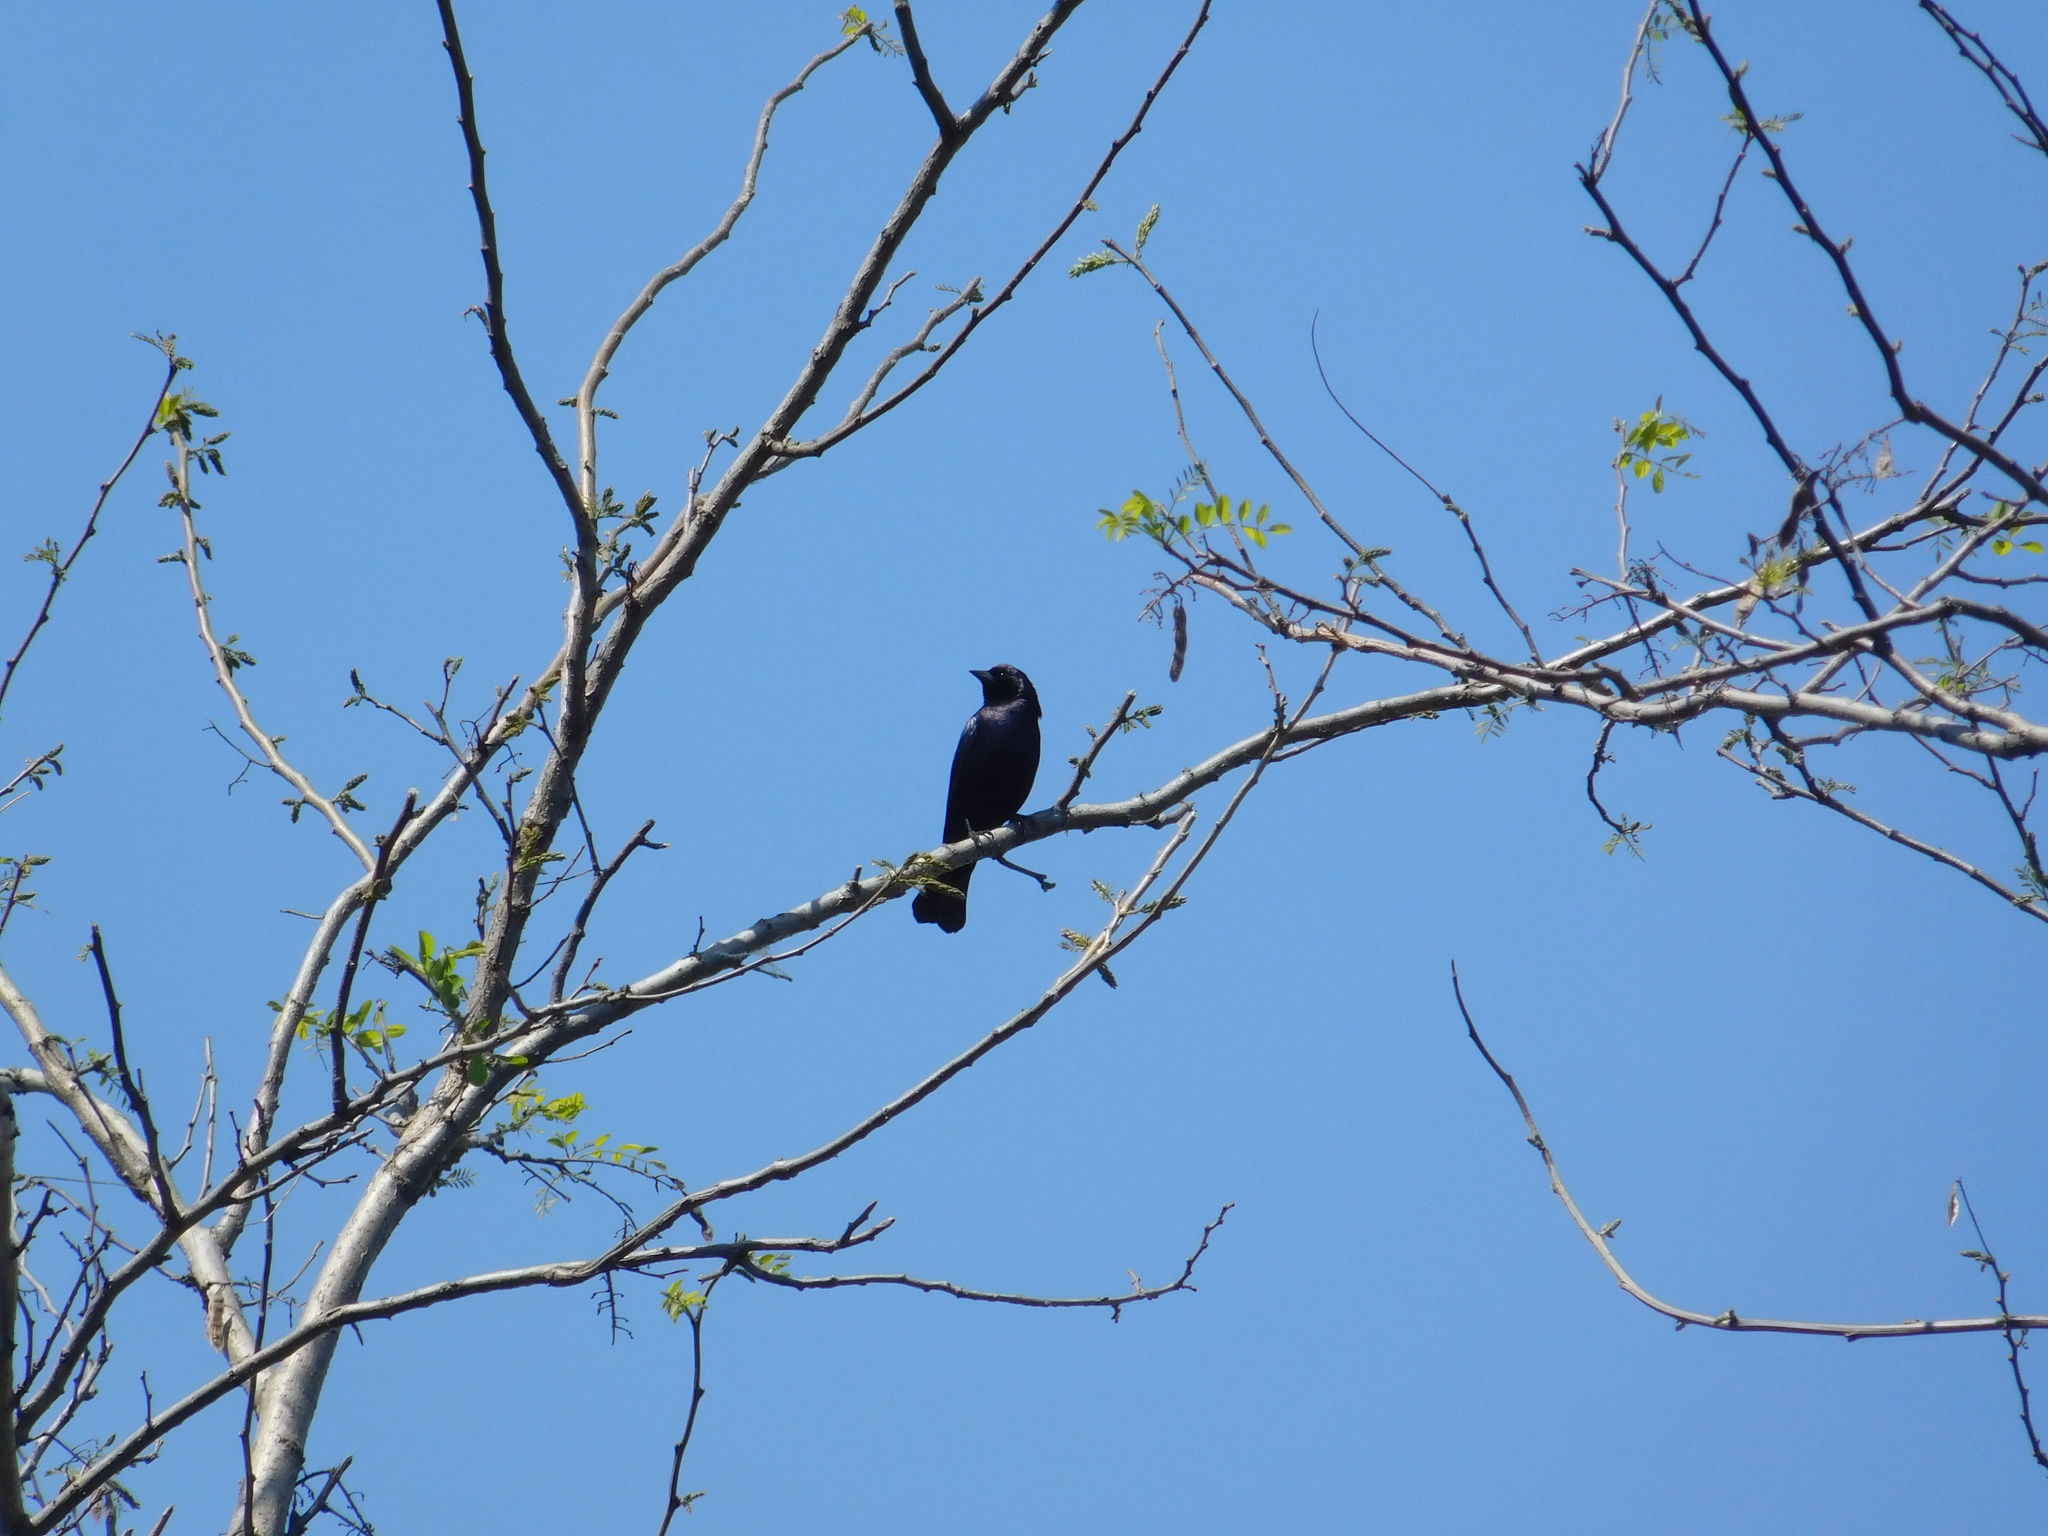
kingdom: Animalia
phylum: Chordata
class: Aves
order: Passeriformes
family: Icteridae
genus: Molothrus
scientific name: Molothrus bonariensis
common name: Shiny cowbird
